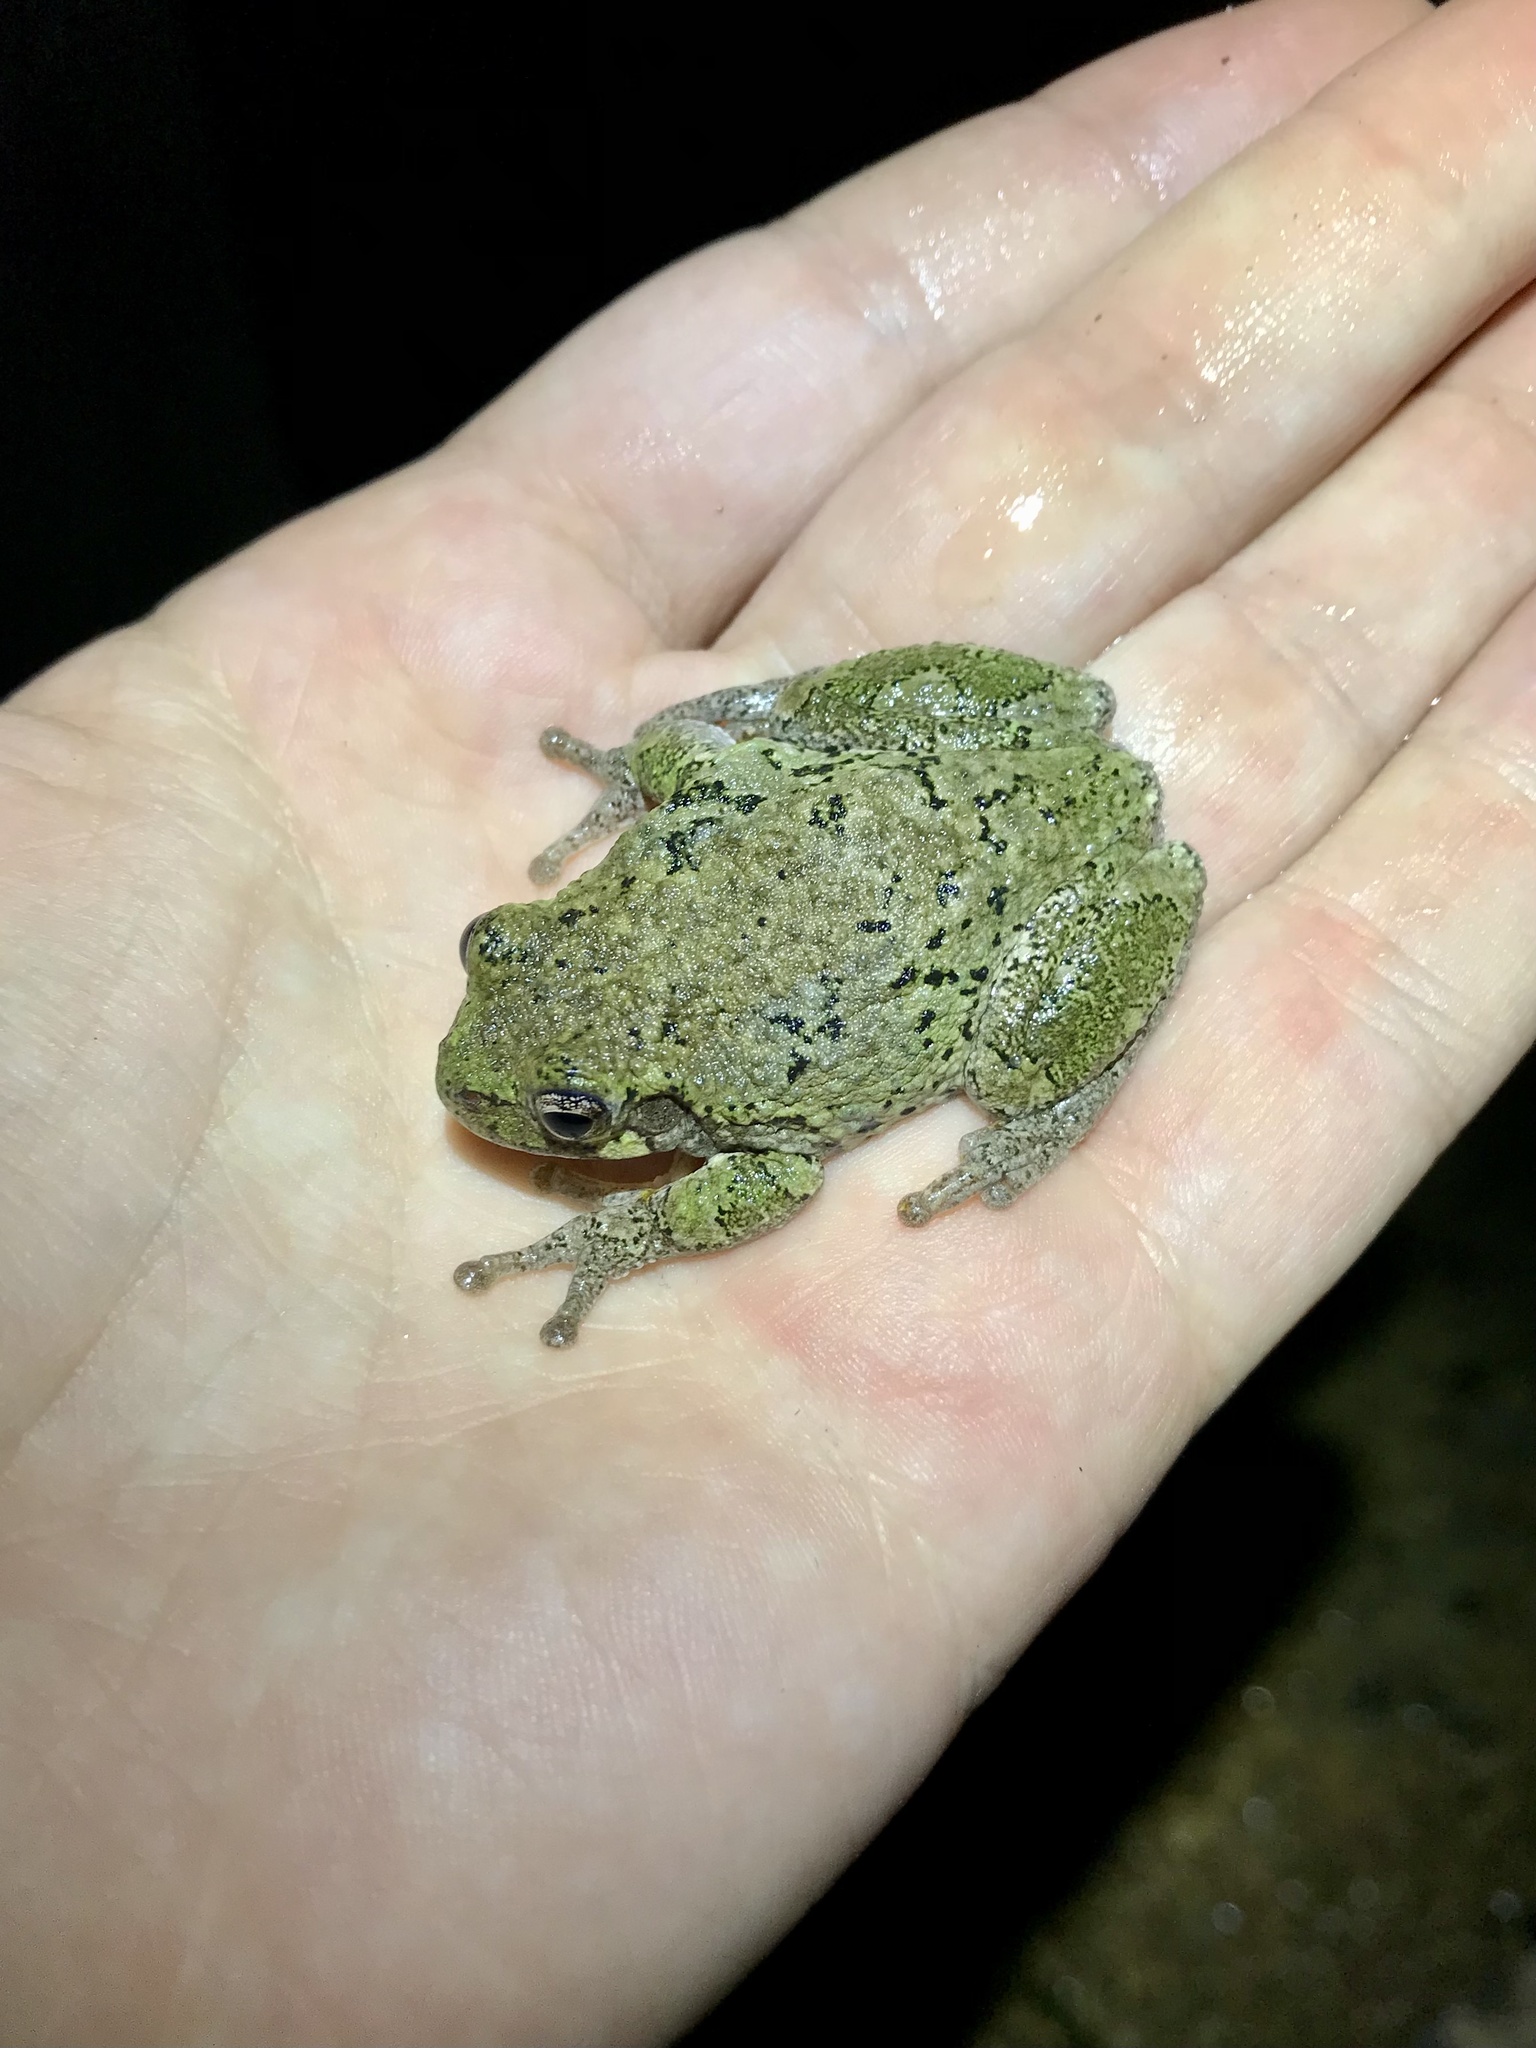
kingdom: Animalia
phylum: Chordata
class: Amphibia
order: Anura
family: Hylidae
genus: Dryophytes
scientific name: Dryophytes versicolor
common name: Gray treefrog
